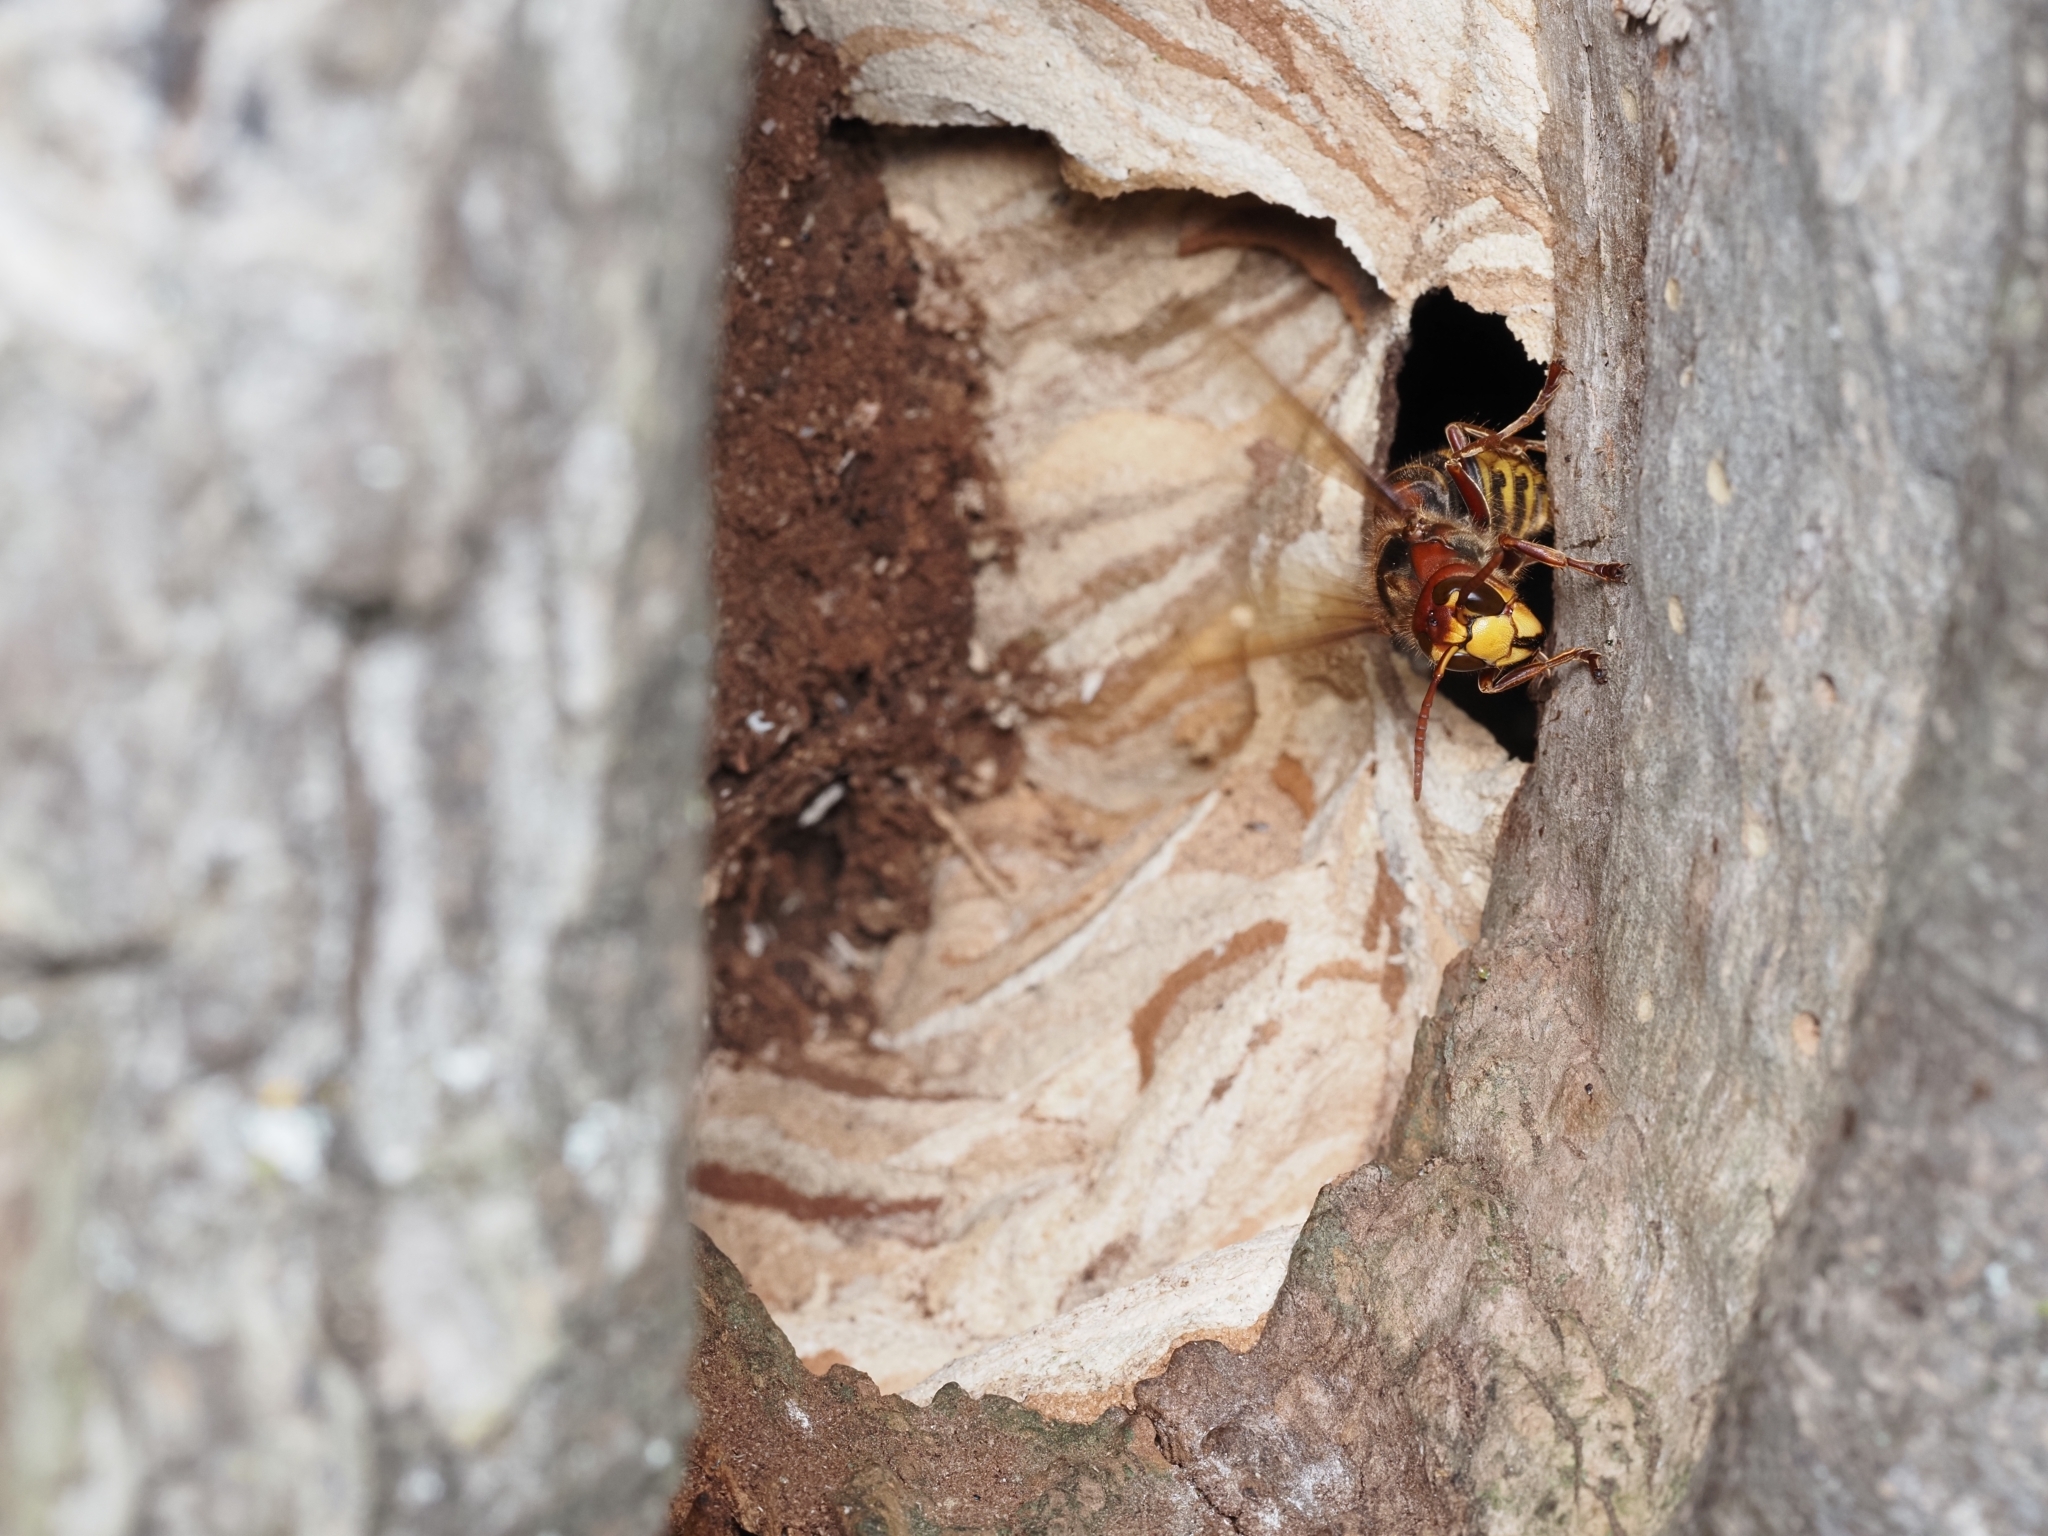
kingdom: Animalia
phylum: Arthropoda
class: Insecta
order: Hymenoptera
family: Vespidae
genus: Vespa
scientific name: Vespa crabro
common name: Hornet
